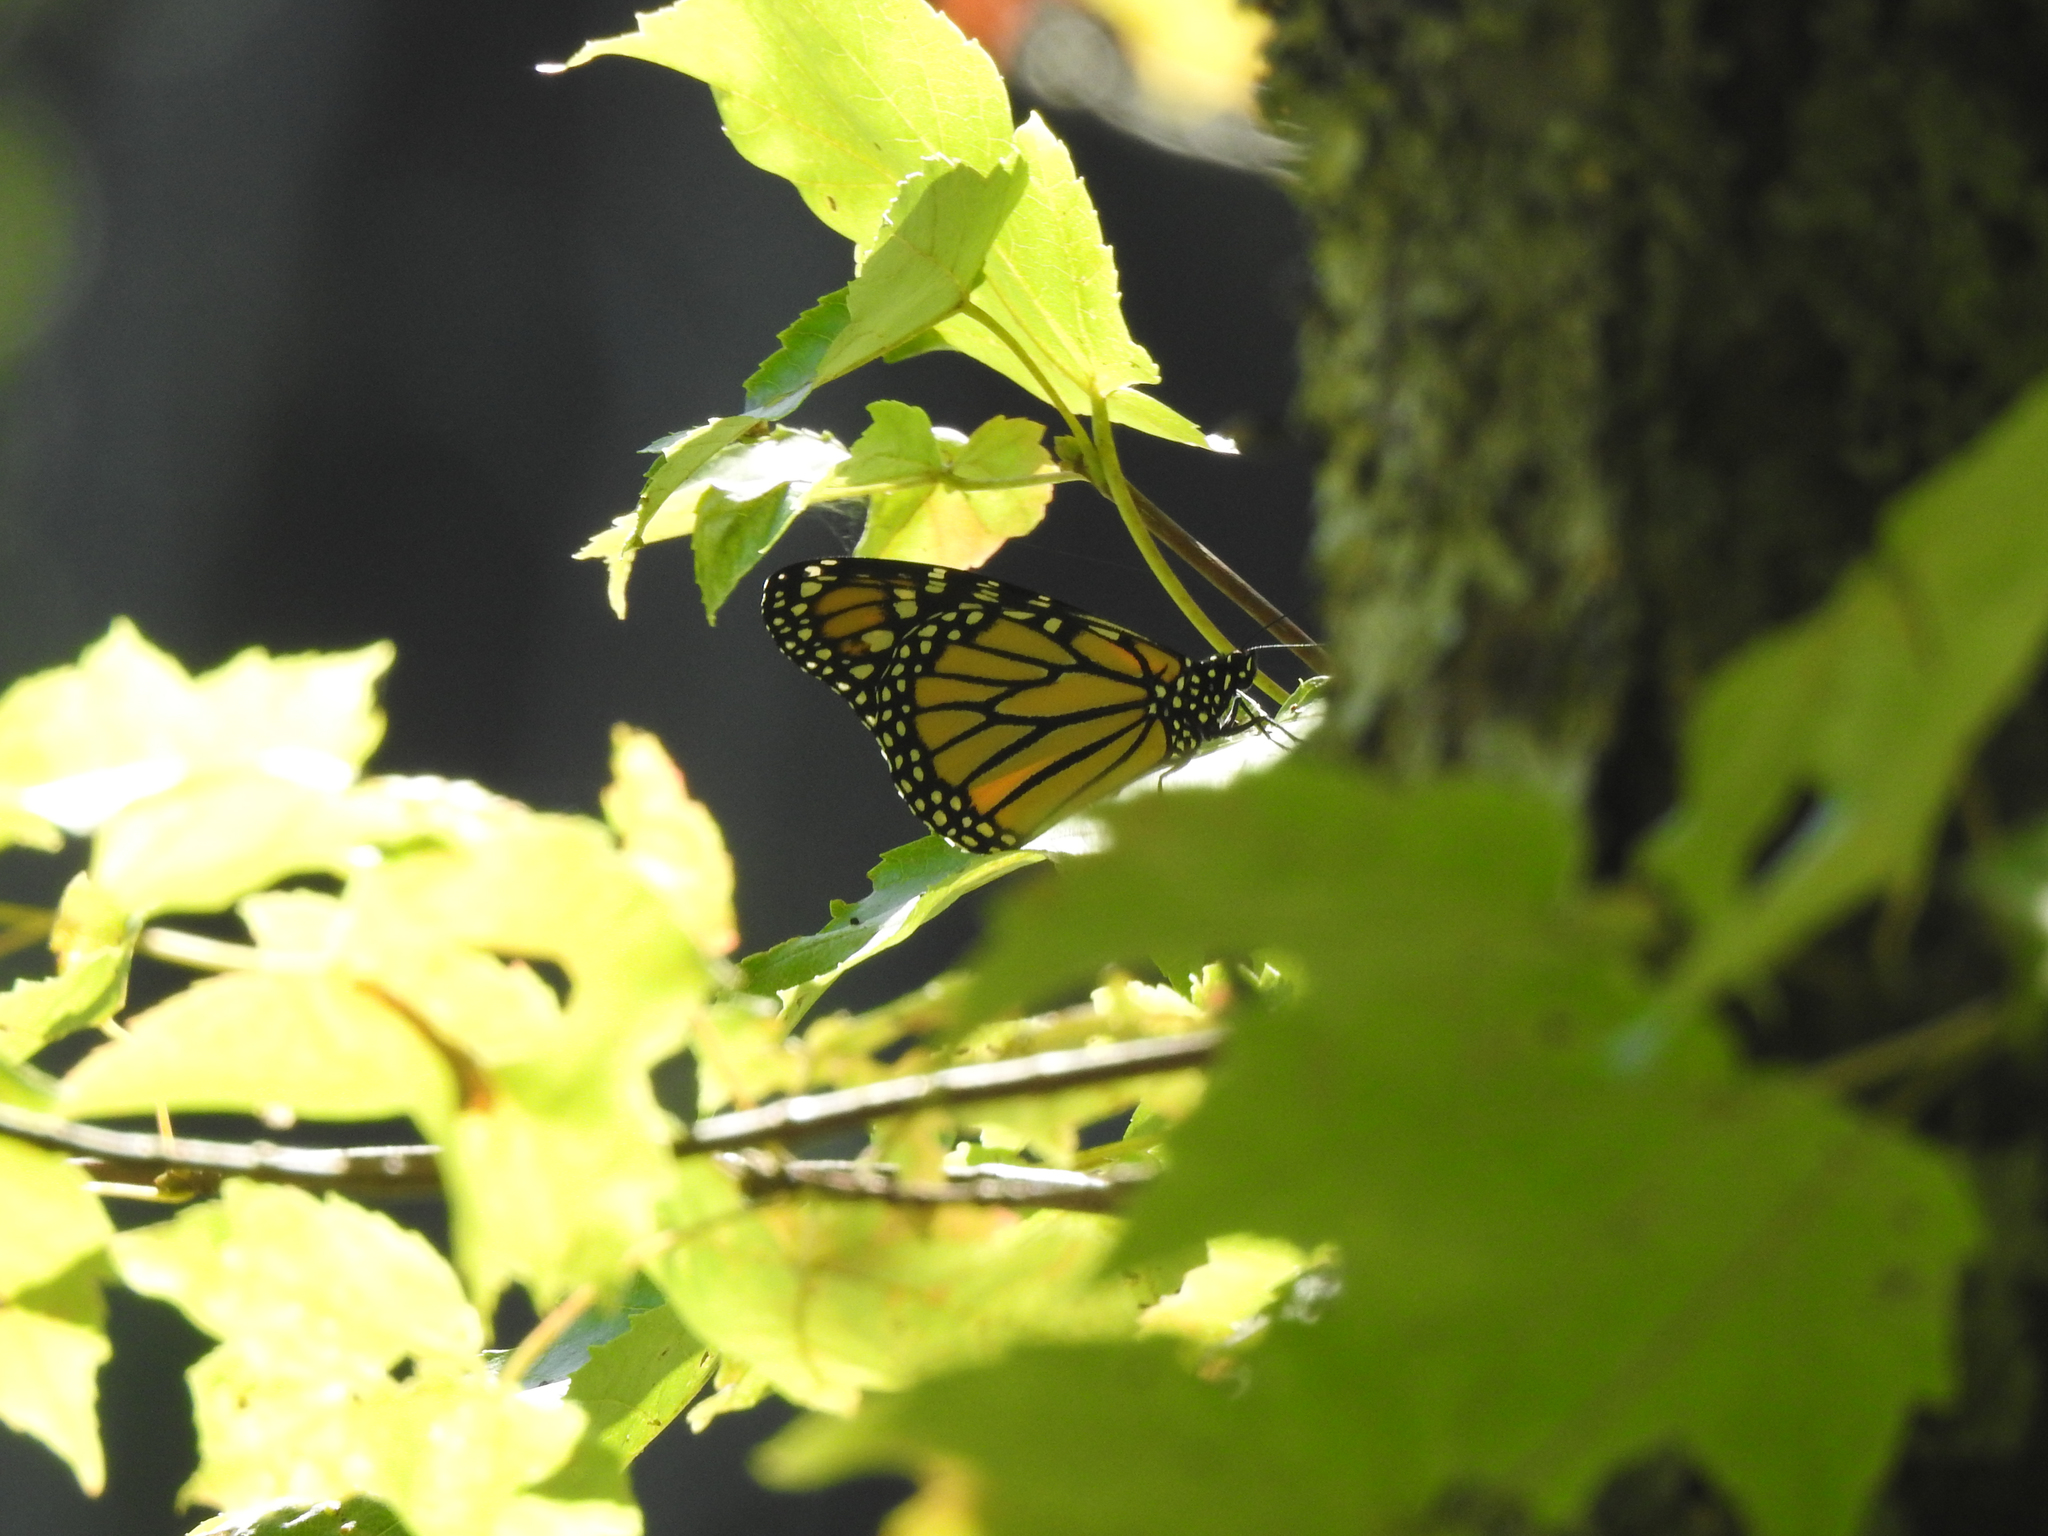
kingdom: Animalia
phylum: Arthropoda
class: Insecta
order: Lepidoptera
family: Nymphalidae
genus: Danaus
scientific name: Danaus plexippus
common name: Monarch
